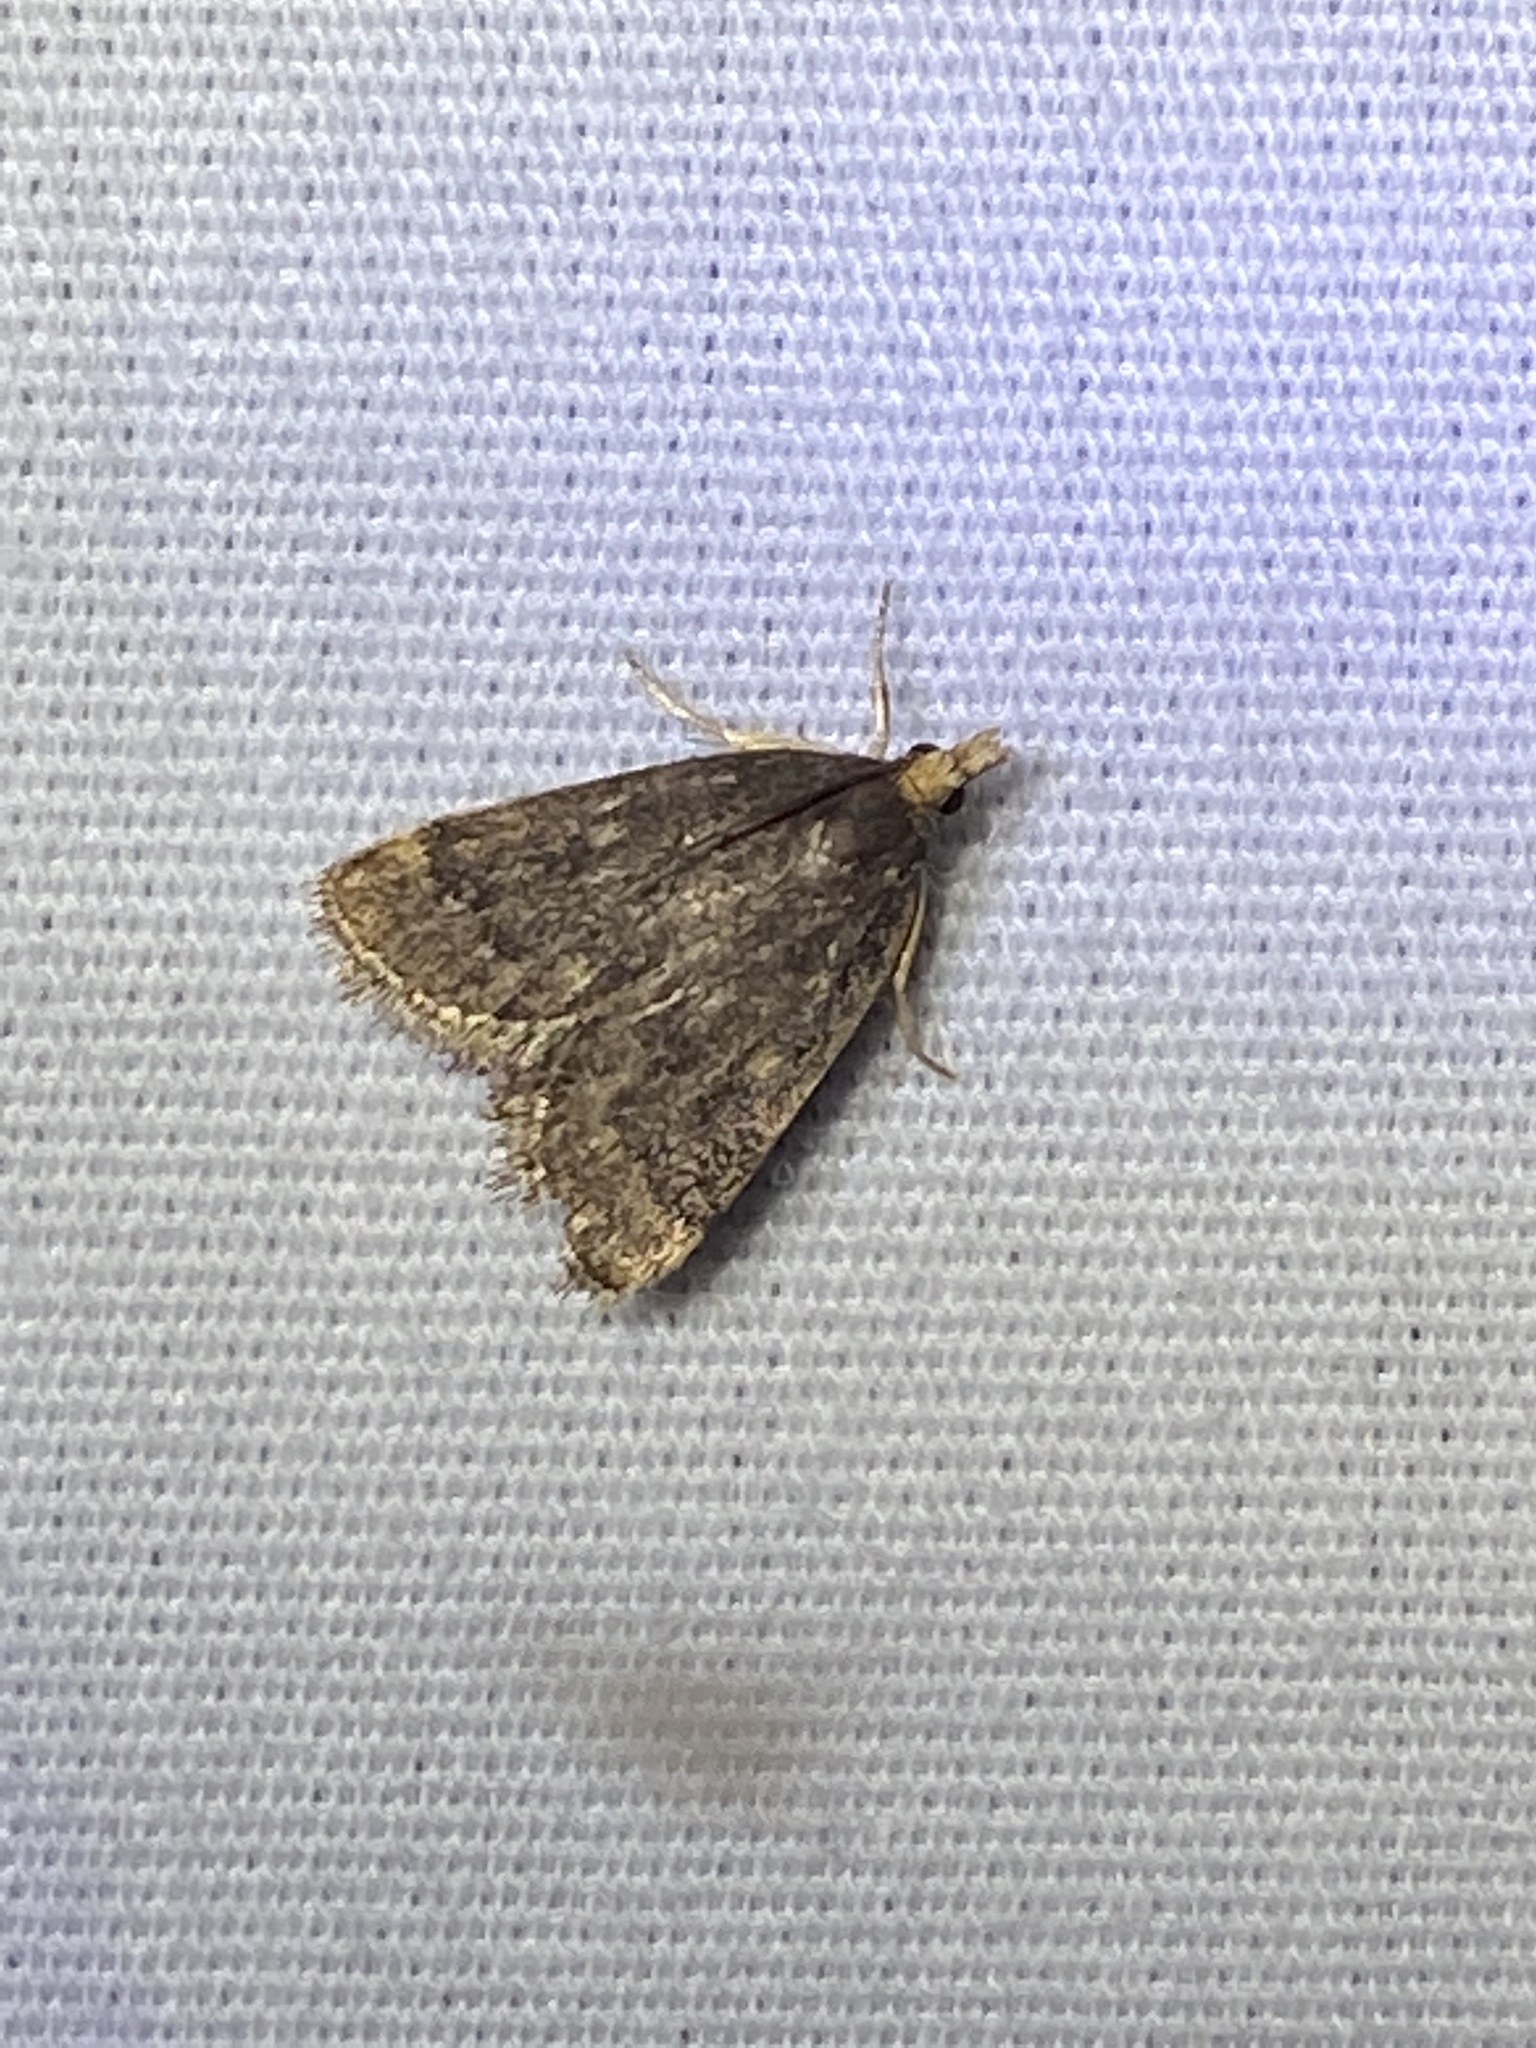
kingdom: Animalia
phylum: Arthropoda
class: Insecta
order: Lepidoptera
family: Crambidae
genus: Pyrausta
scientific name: Pyrausta merrickalis
